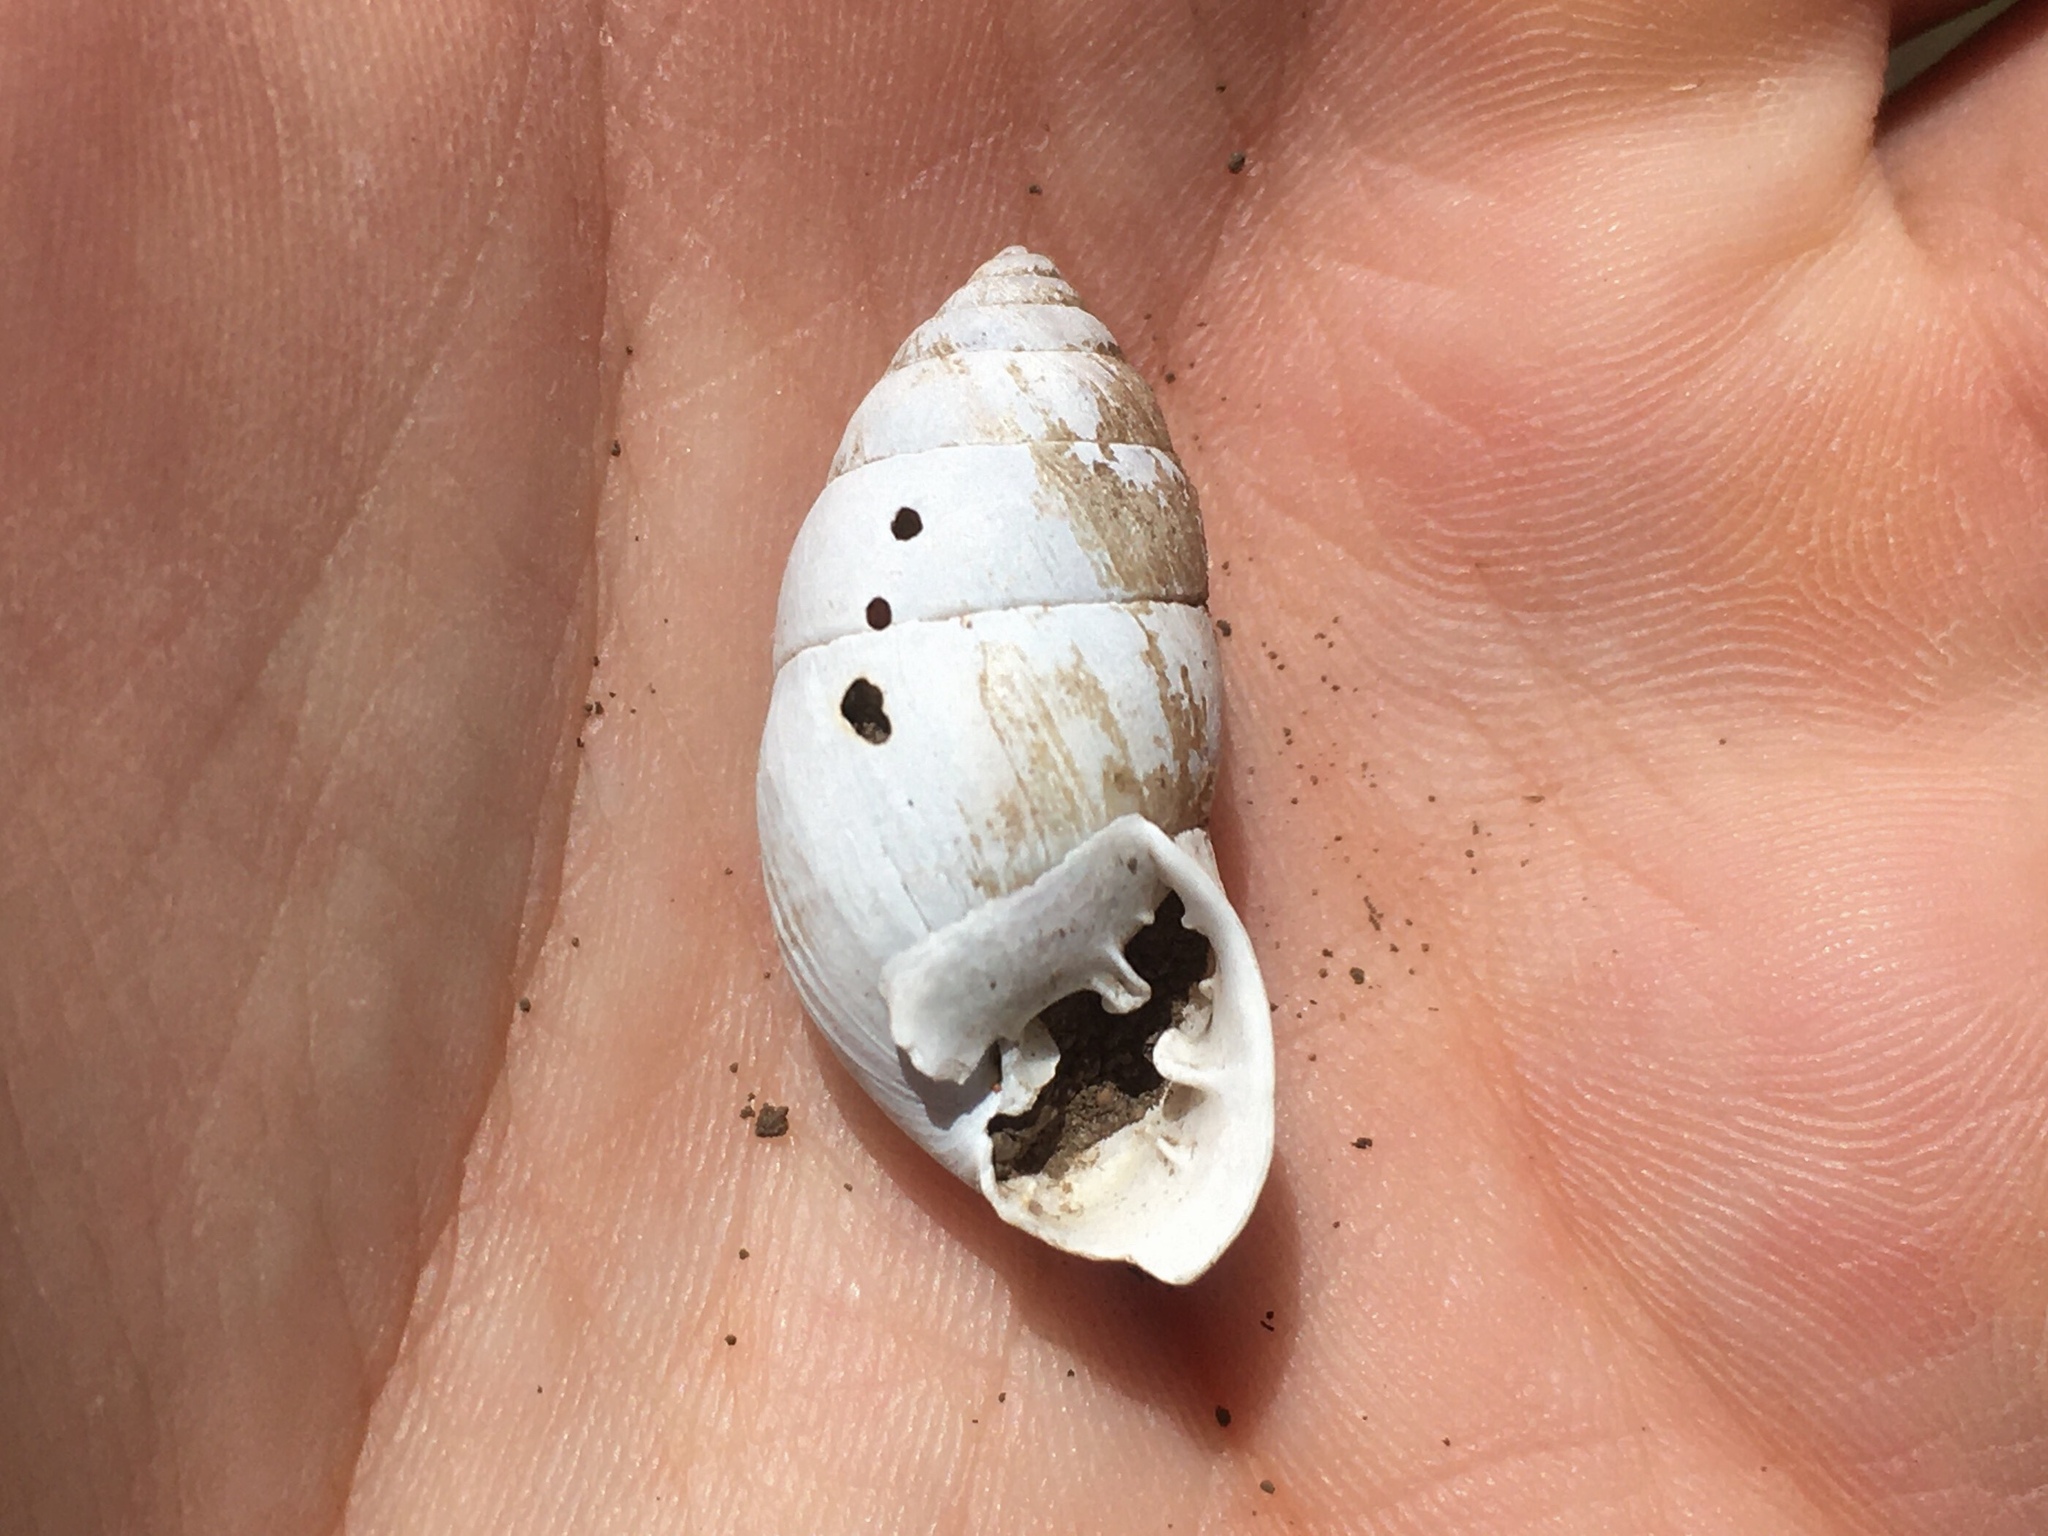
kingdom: Animalia
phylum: Mollusca
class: Gastropoda
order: Stylommatophora
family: Odontostomidae
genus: Plagiodontes
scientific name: Plagiodontes patagonicus
